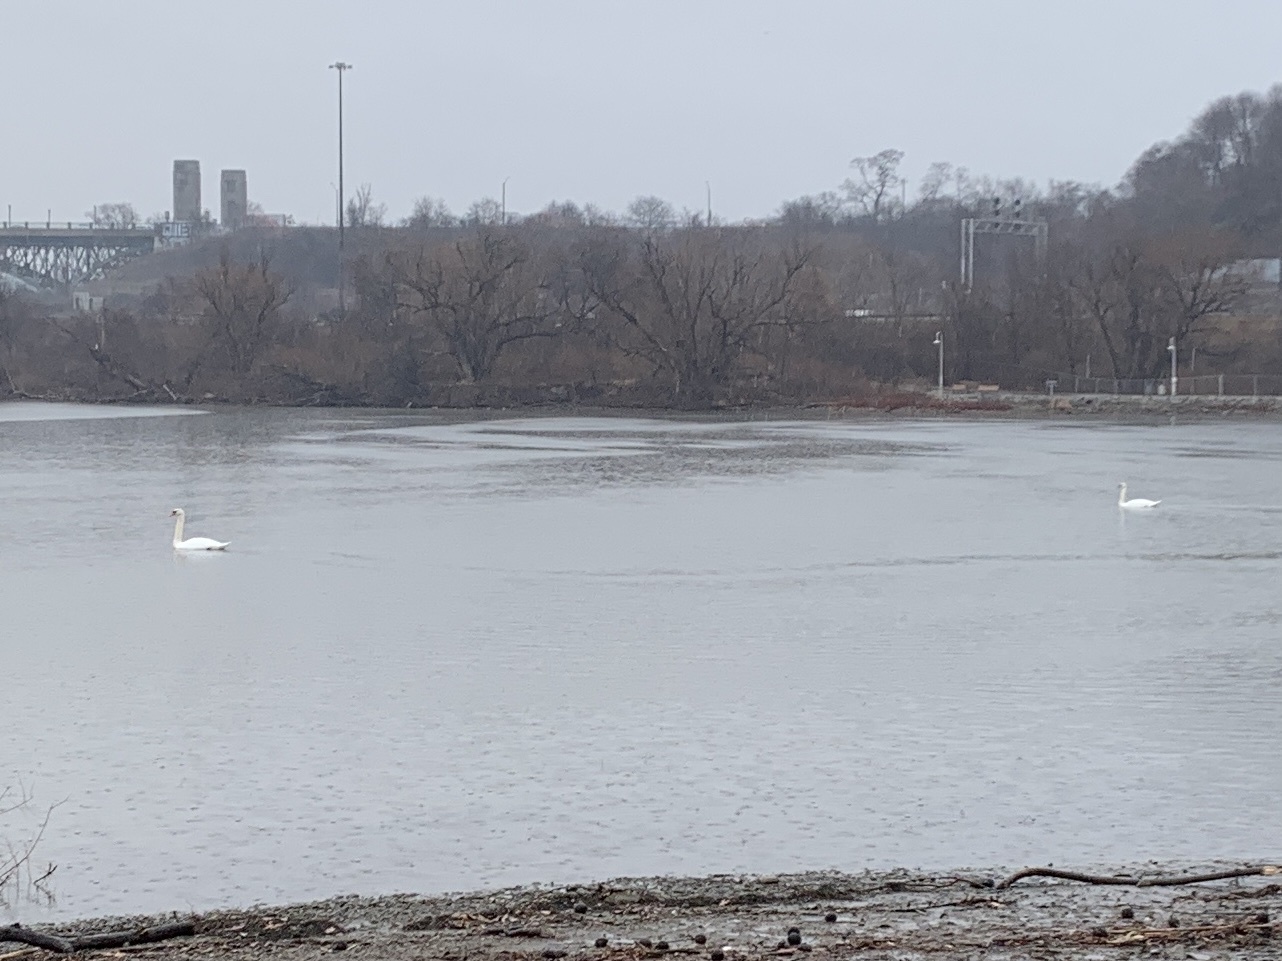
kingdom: Animalia
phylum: Chordata
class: Aves
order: Anseriformes
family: Anatidae
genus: Cygnus
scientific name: Cygnus olor
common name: Mute swan
